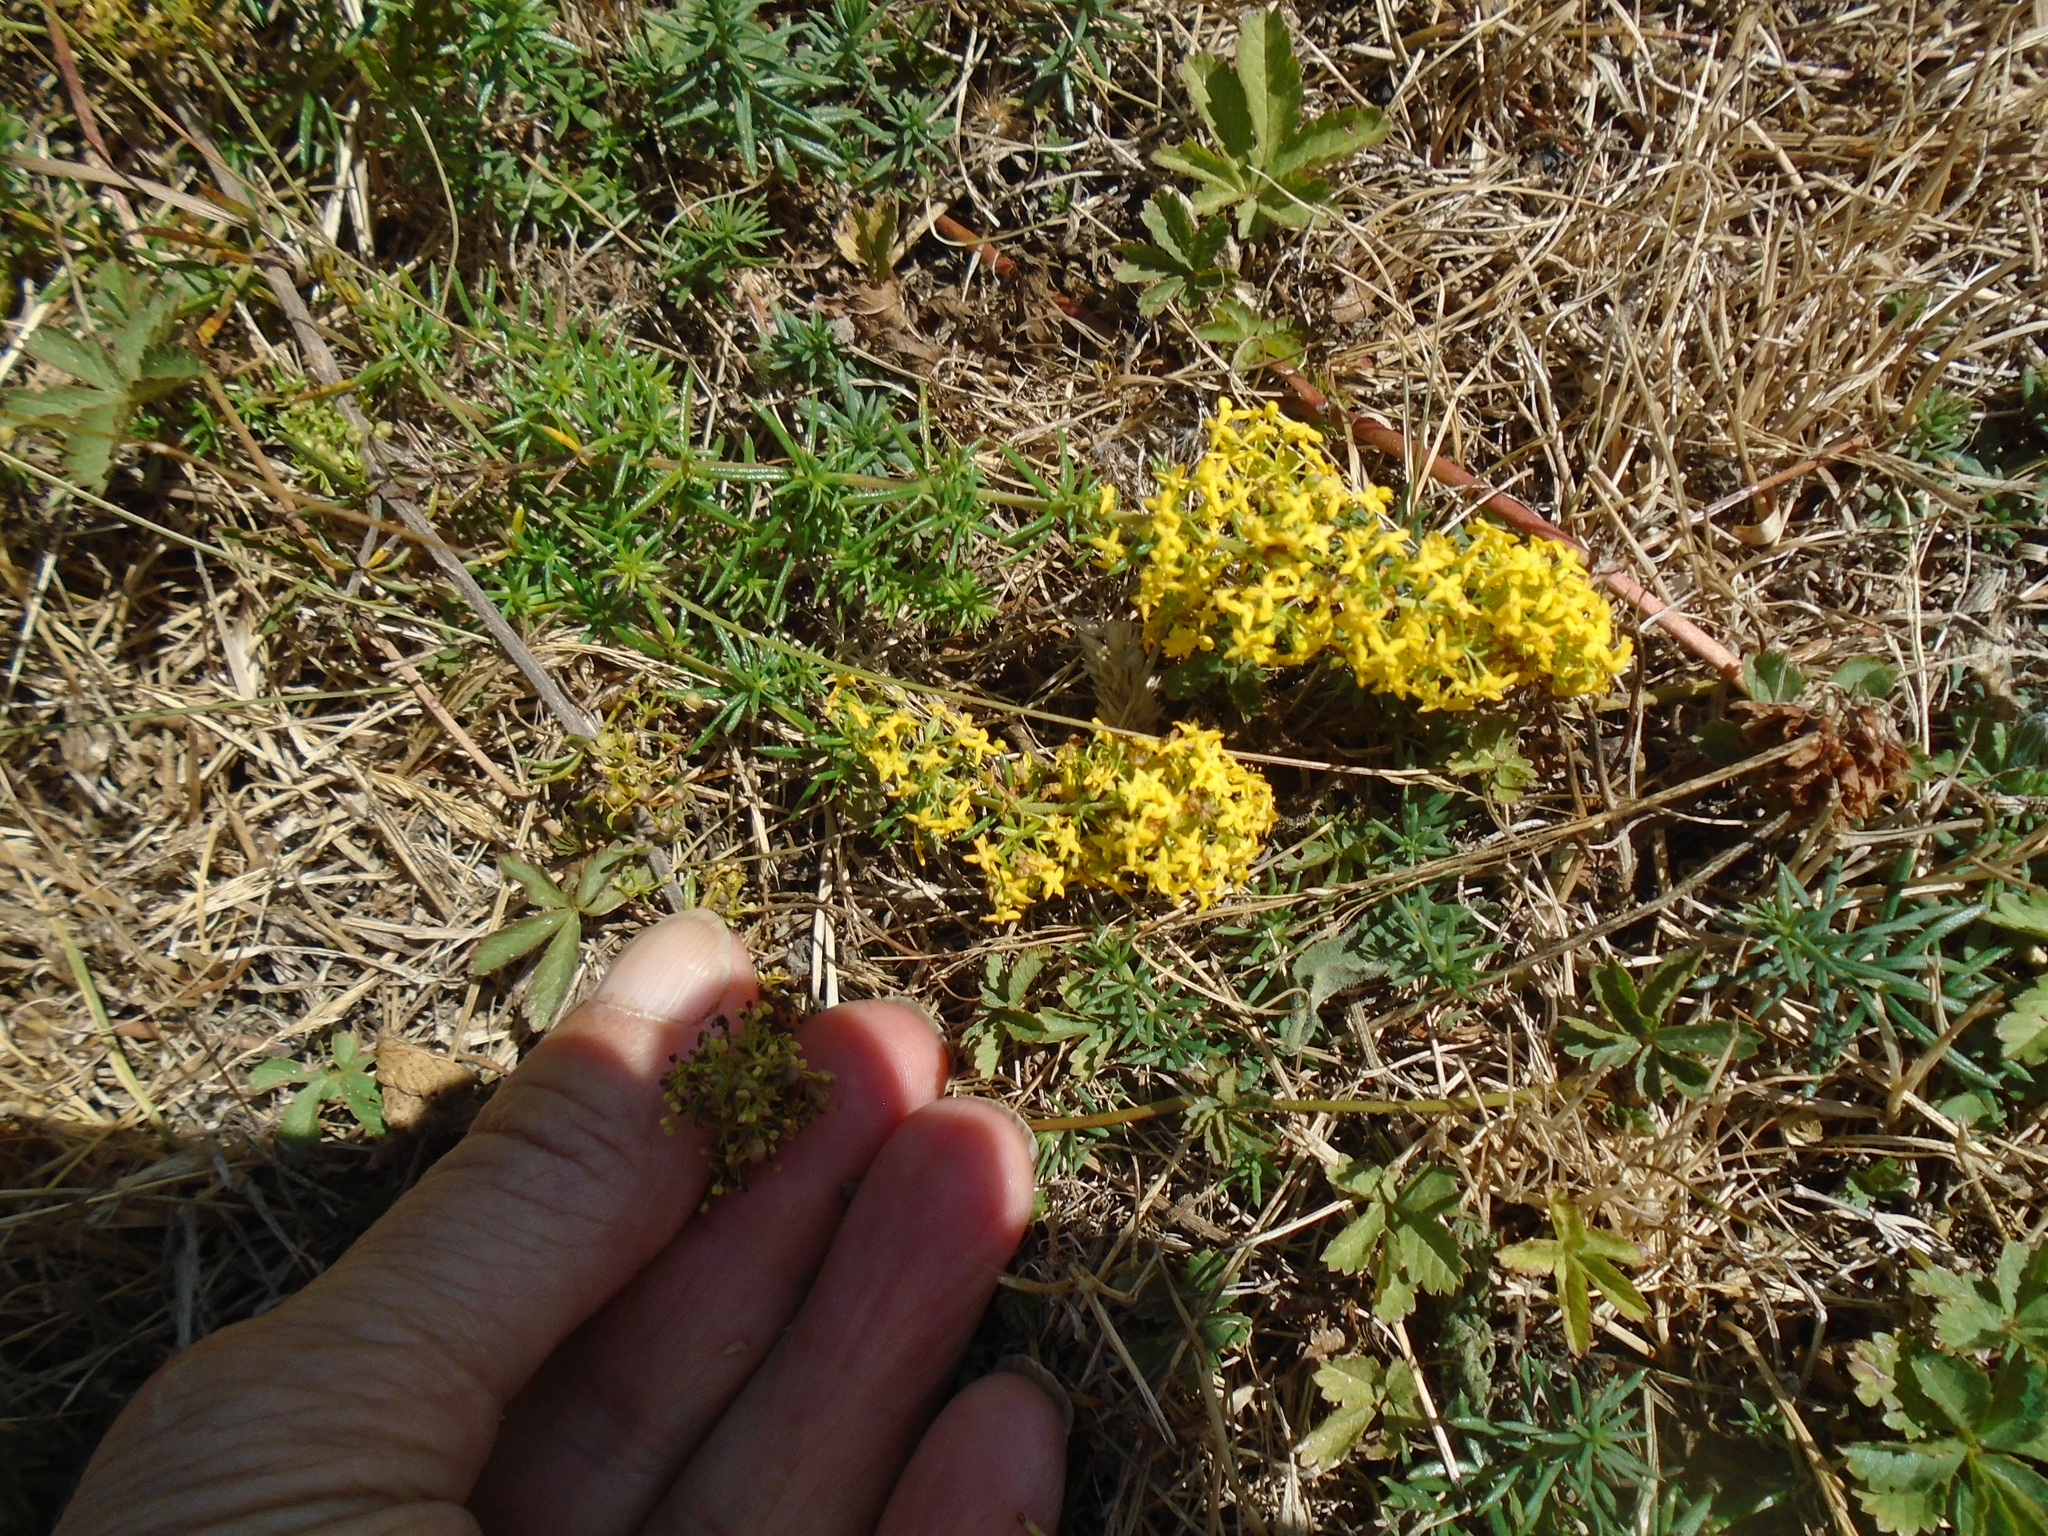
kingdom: Plantae
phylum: Tracheophyta
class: Magnoliopsida
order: Gentianales
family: Rubiaceae
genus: Galium
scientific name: Galium verum
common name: Lady's bedstraw
